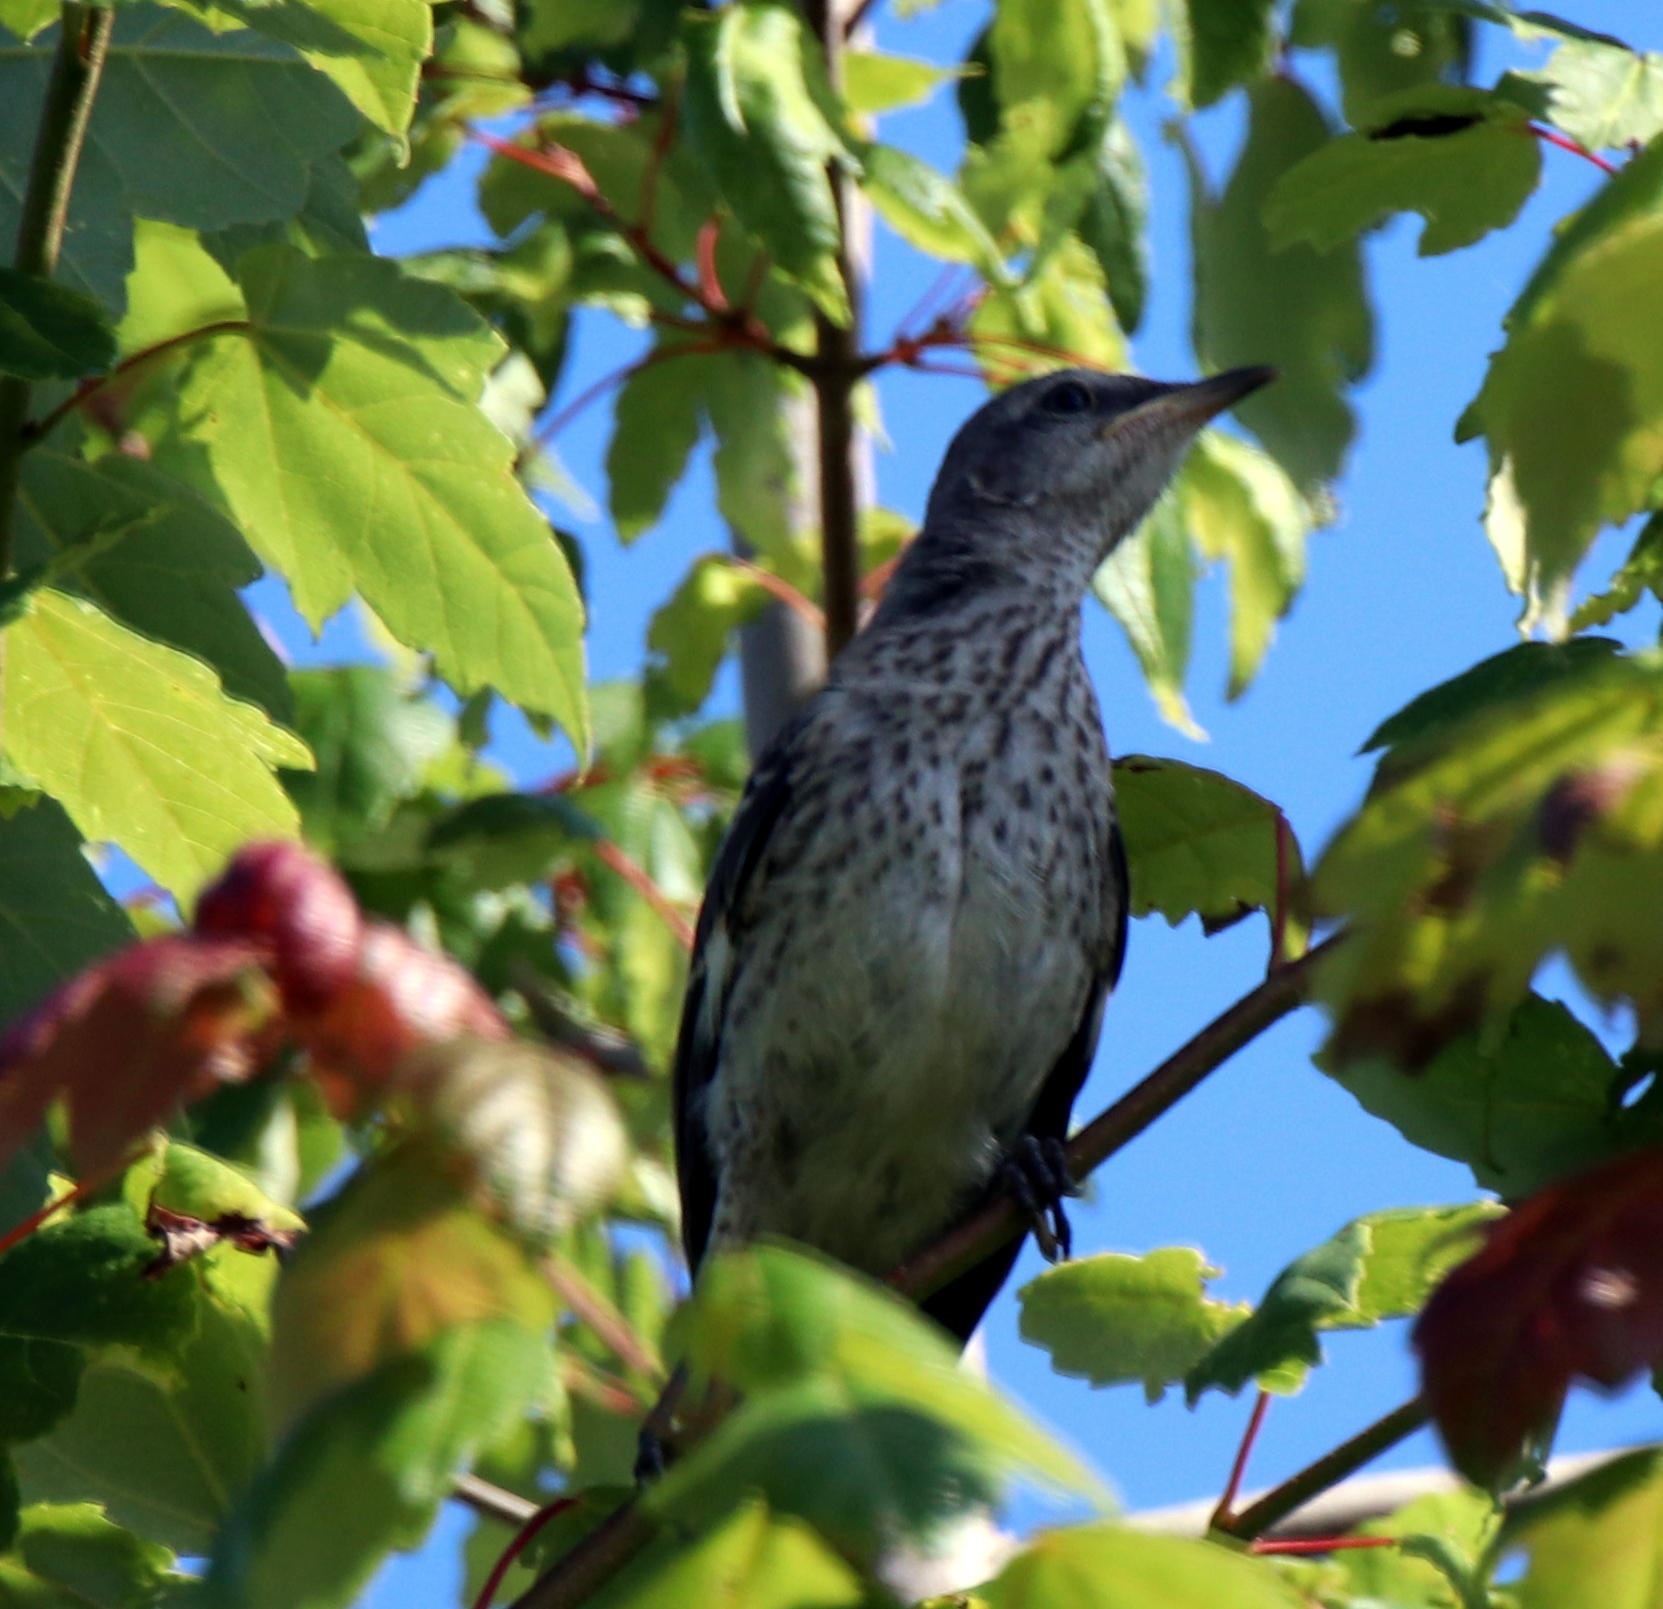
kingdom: Animalia
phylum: Chordata
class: Aves
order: Passeriformes
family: Mimidae
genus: Mimus
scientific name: Mimus polyglottos
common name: Northern mockingbird
